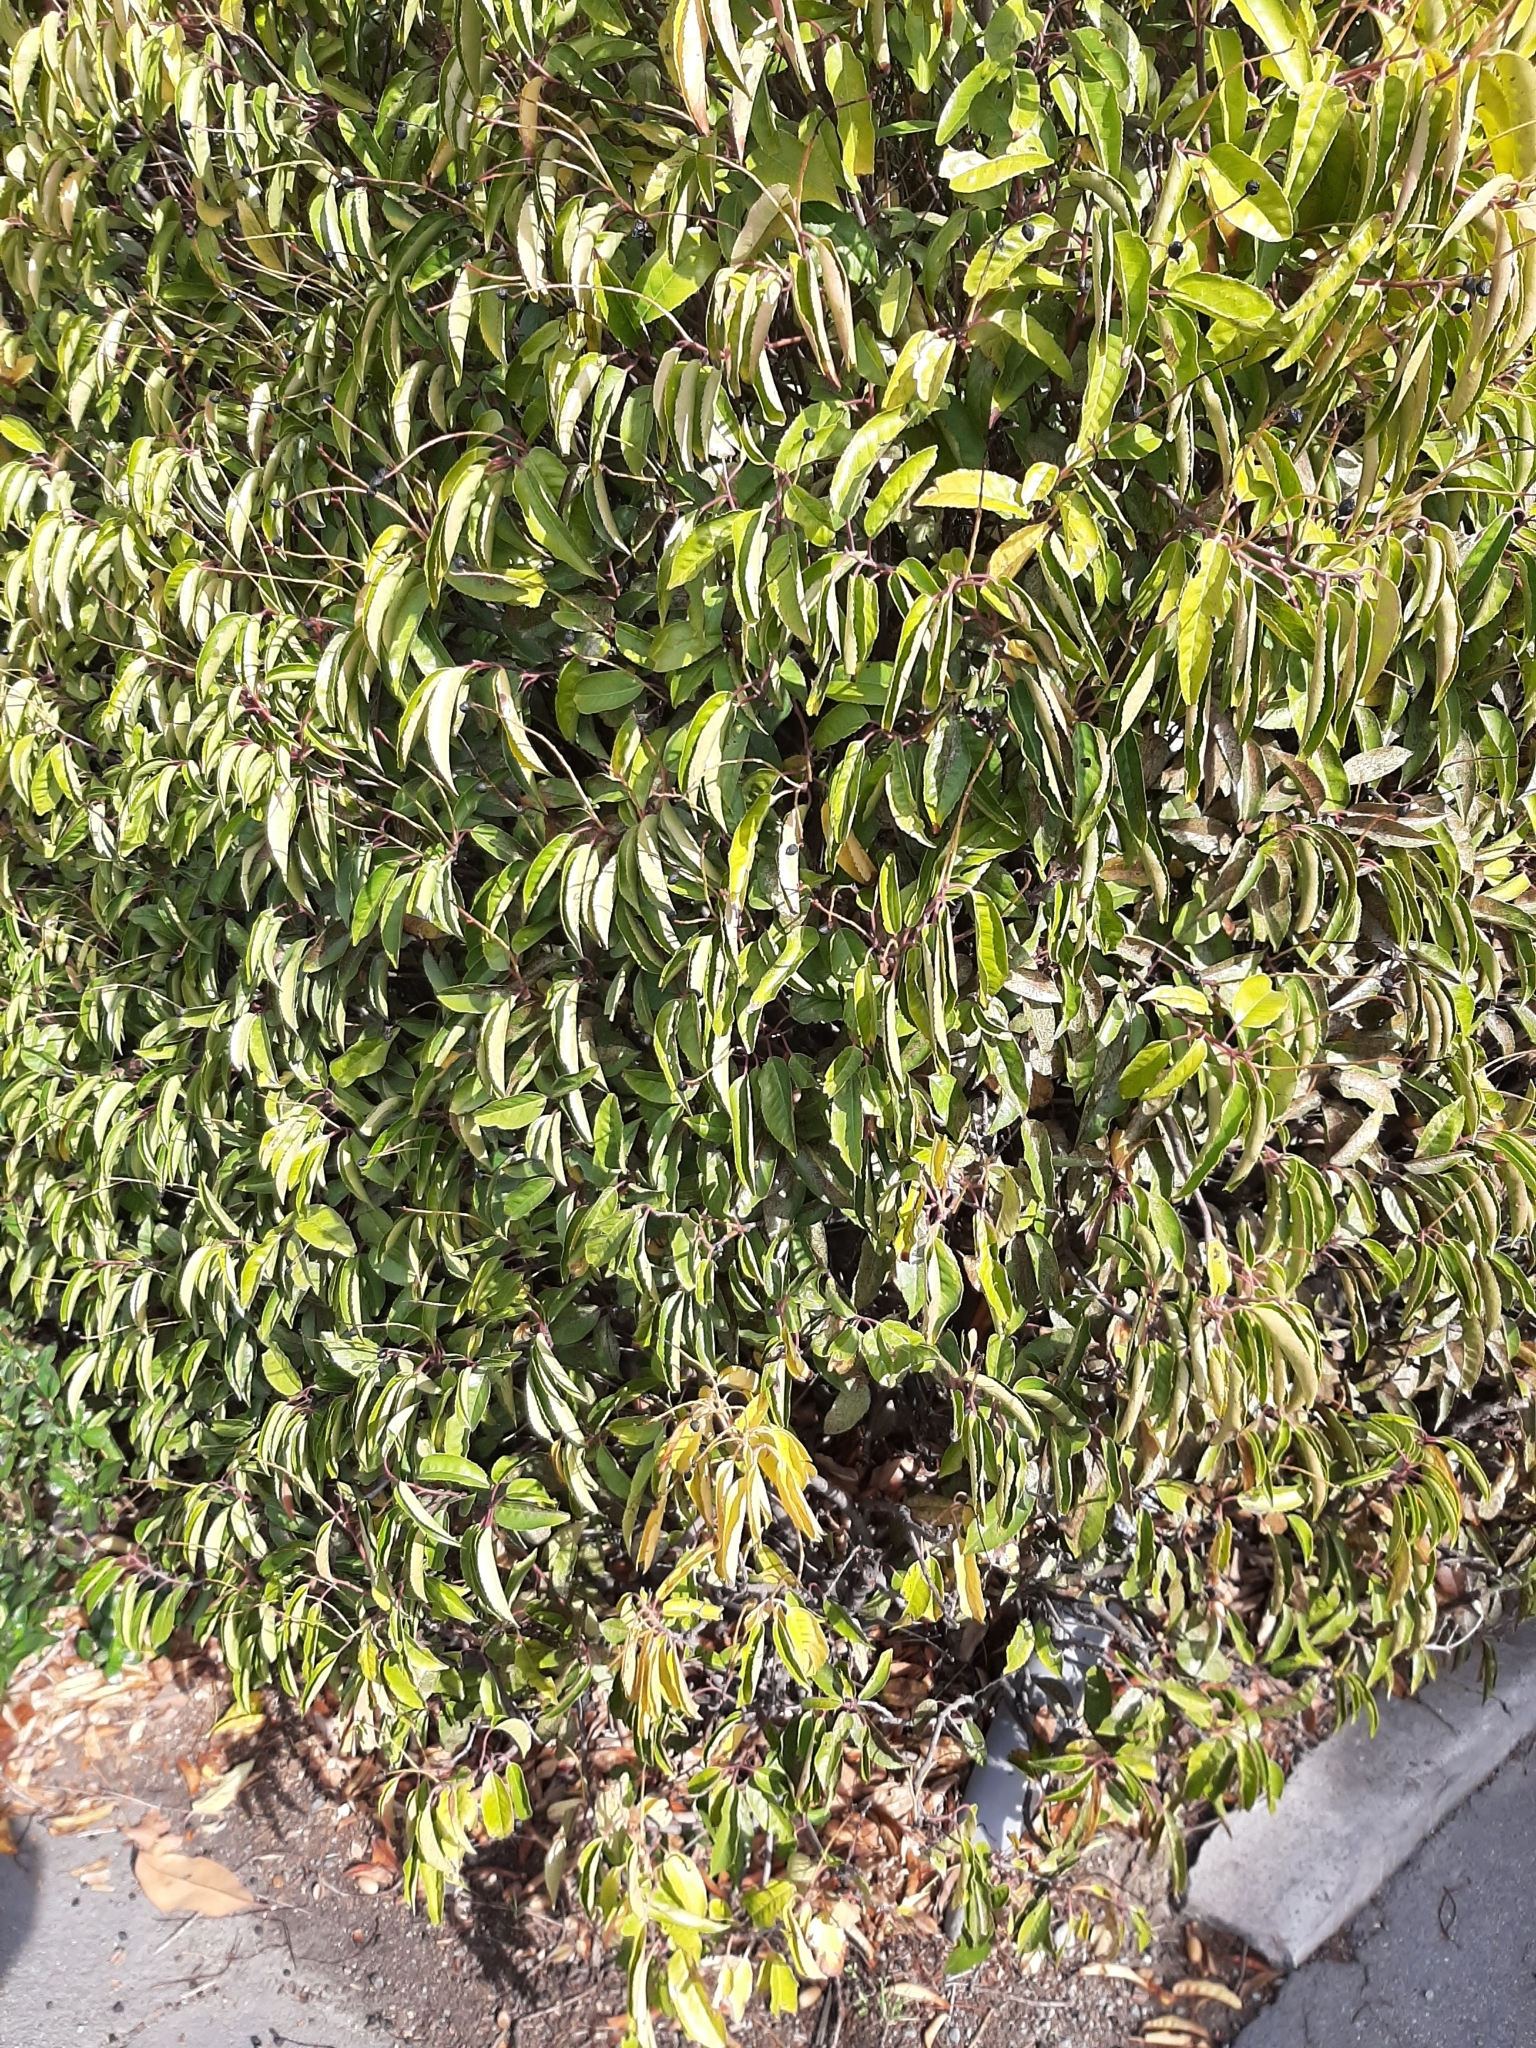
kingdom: Plantae
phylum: Tracheophyta
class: Magnoliopsida
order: Rosales
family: Rosaceae
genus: Prunus
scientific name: Prunus lusitanica
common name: Portugal laurel
